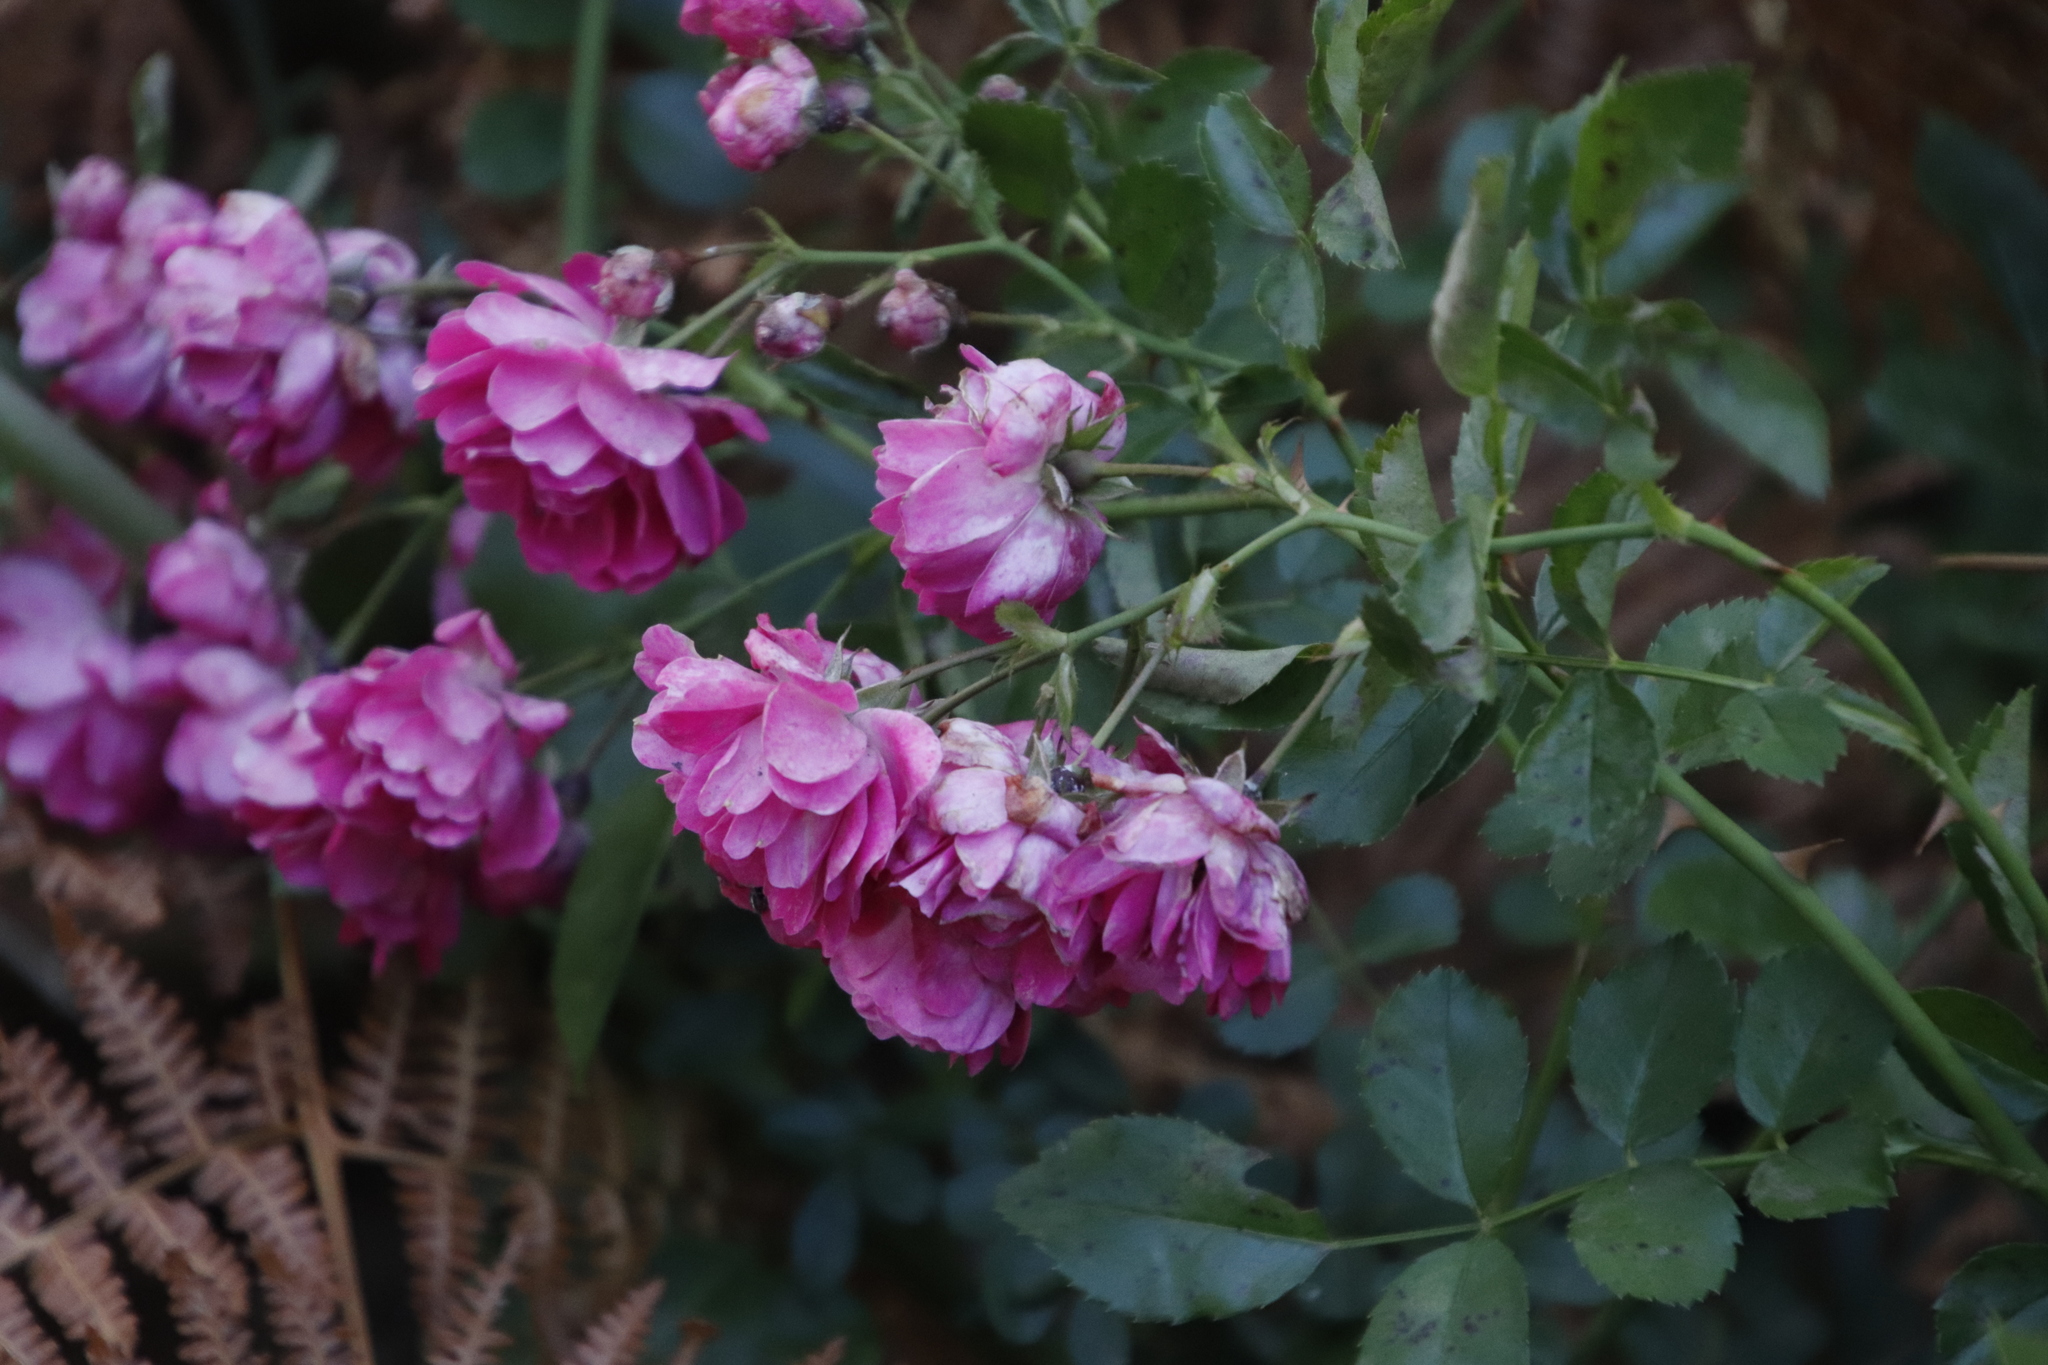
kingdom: Plantae
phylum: Tracheophyta
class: Magnoliopsida
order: Rosales
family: Rosaceae
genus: Rosa
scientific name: Rosa multiflora
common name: Multiflora rose
